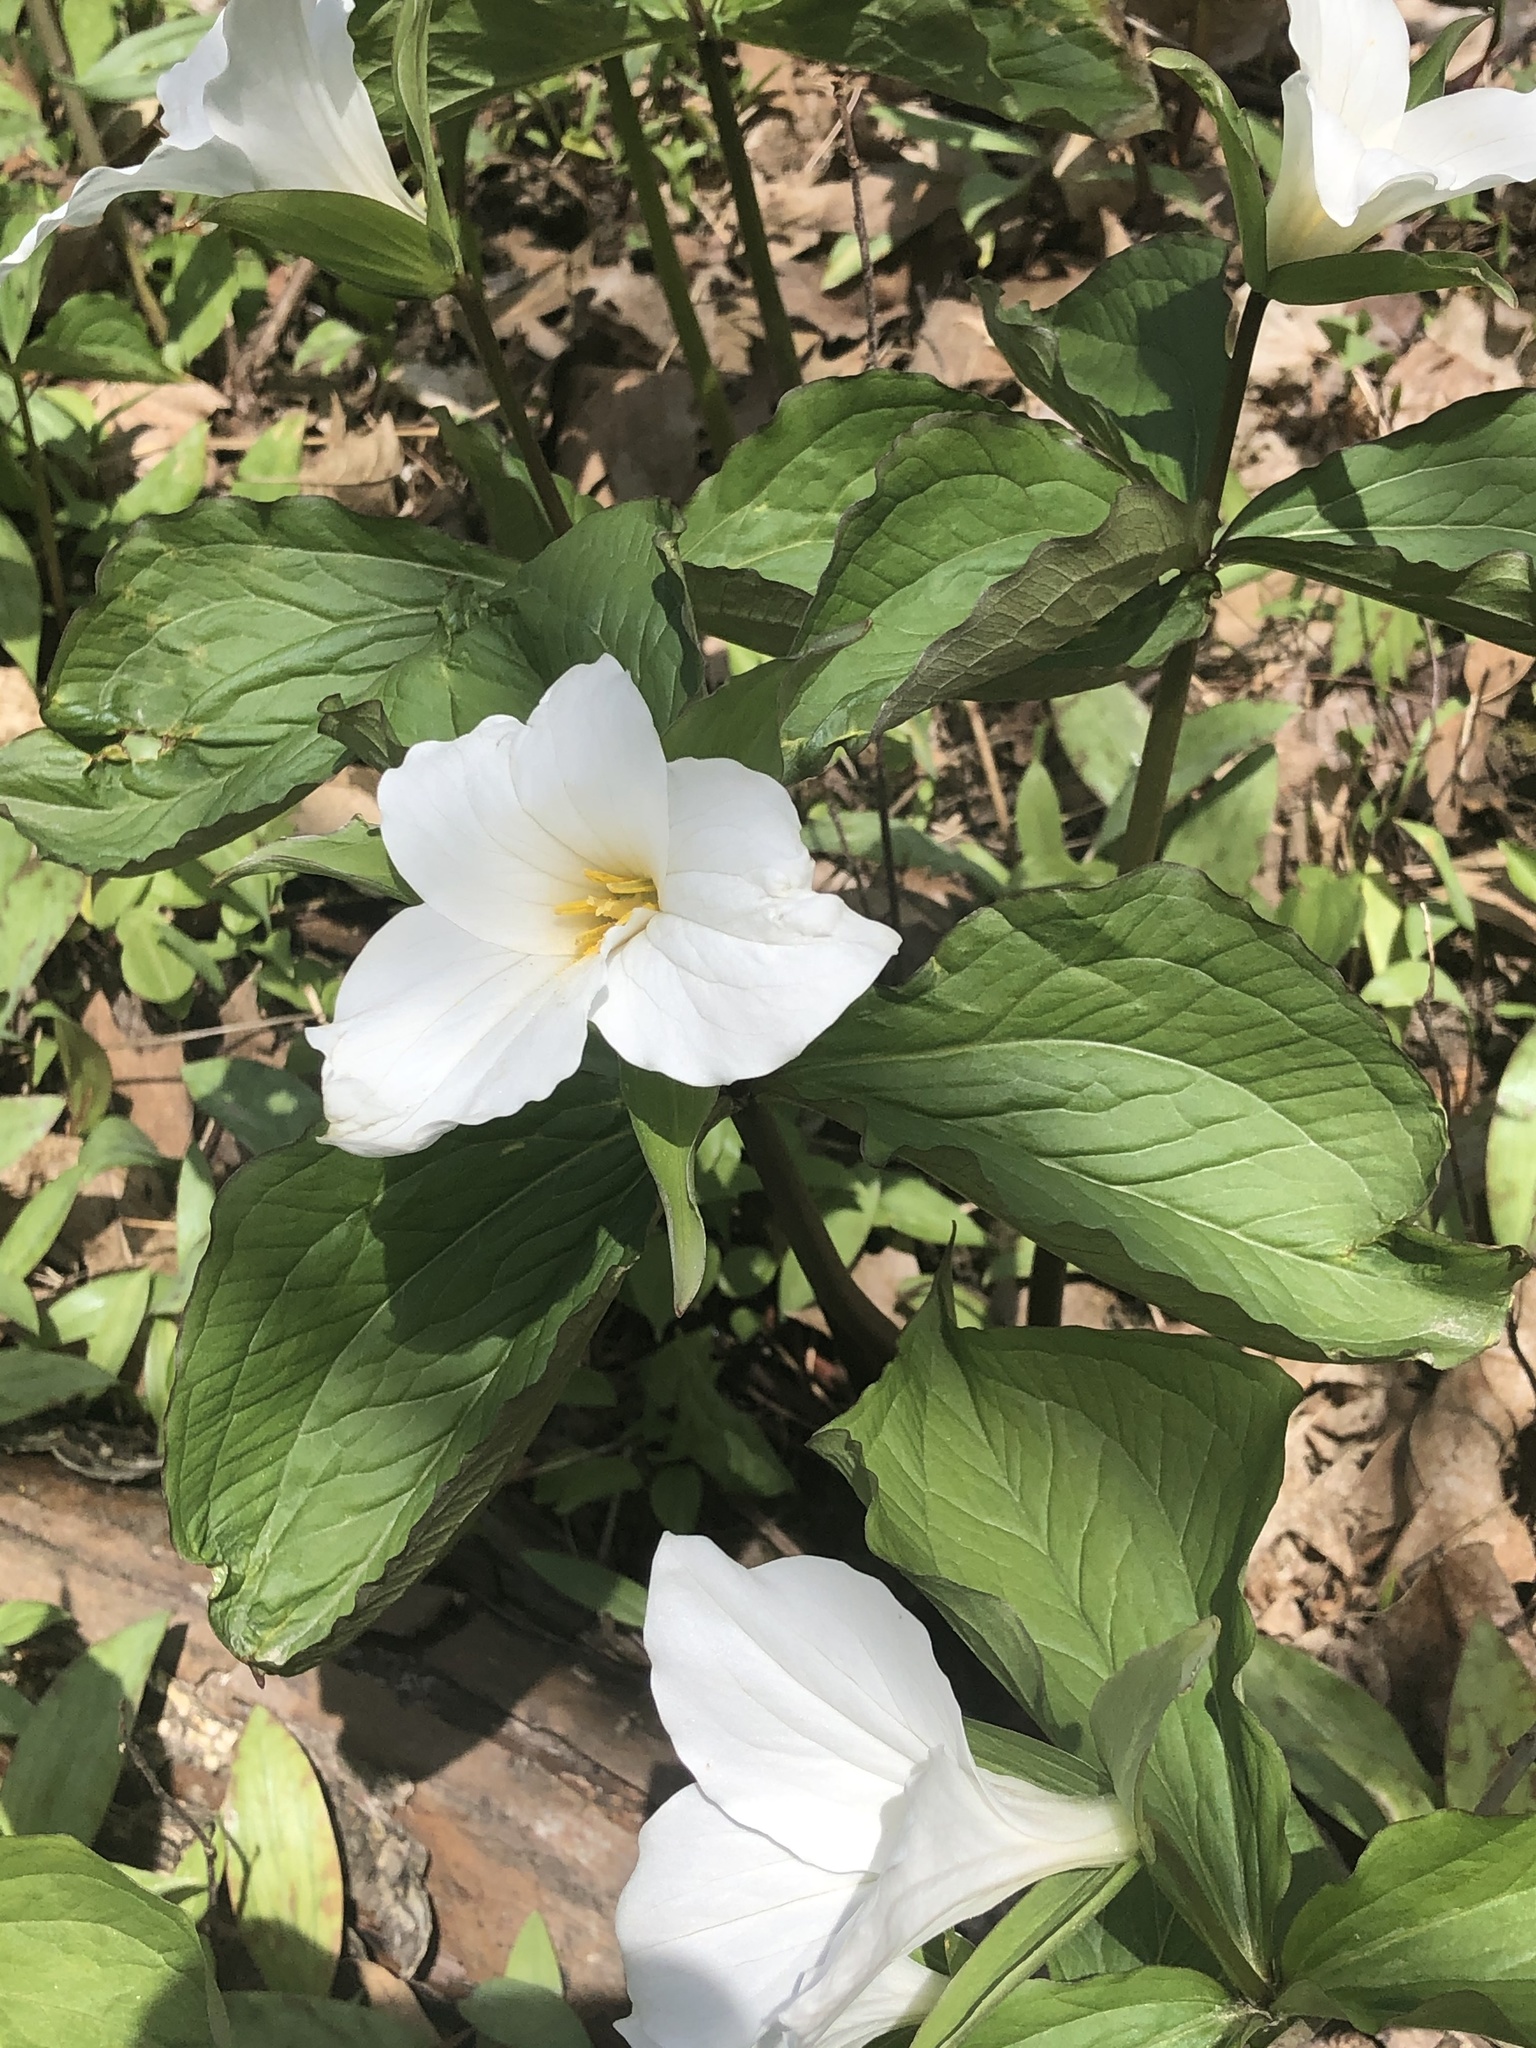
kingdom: Plantae
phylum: Tracheophyta
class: Liliopsida
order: Liliales
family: Melanthiaceae
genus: Trillium
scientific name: Trillium grandiflorum
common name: Great white trillium
